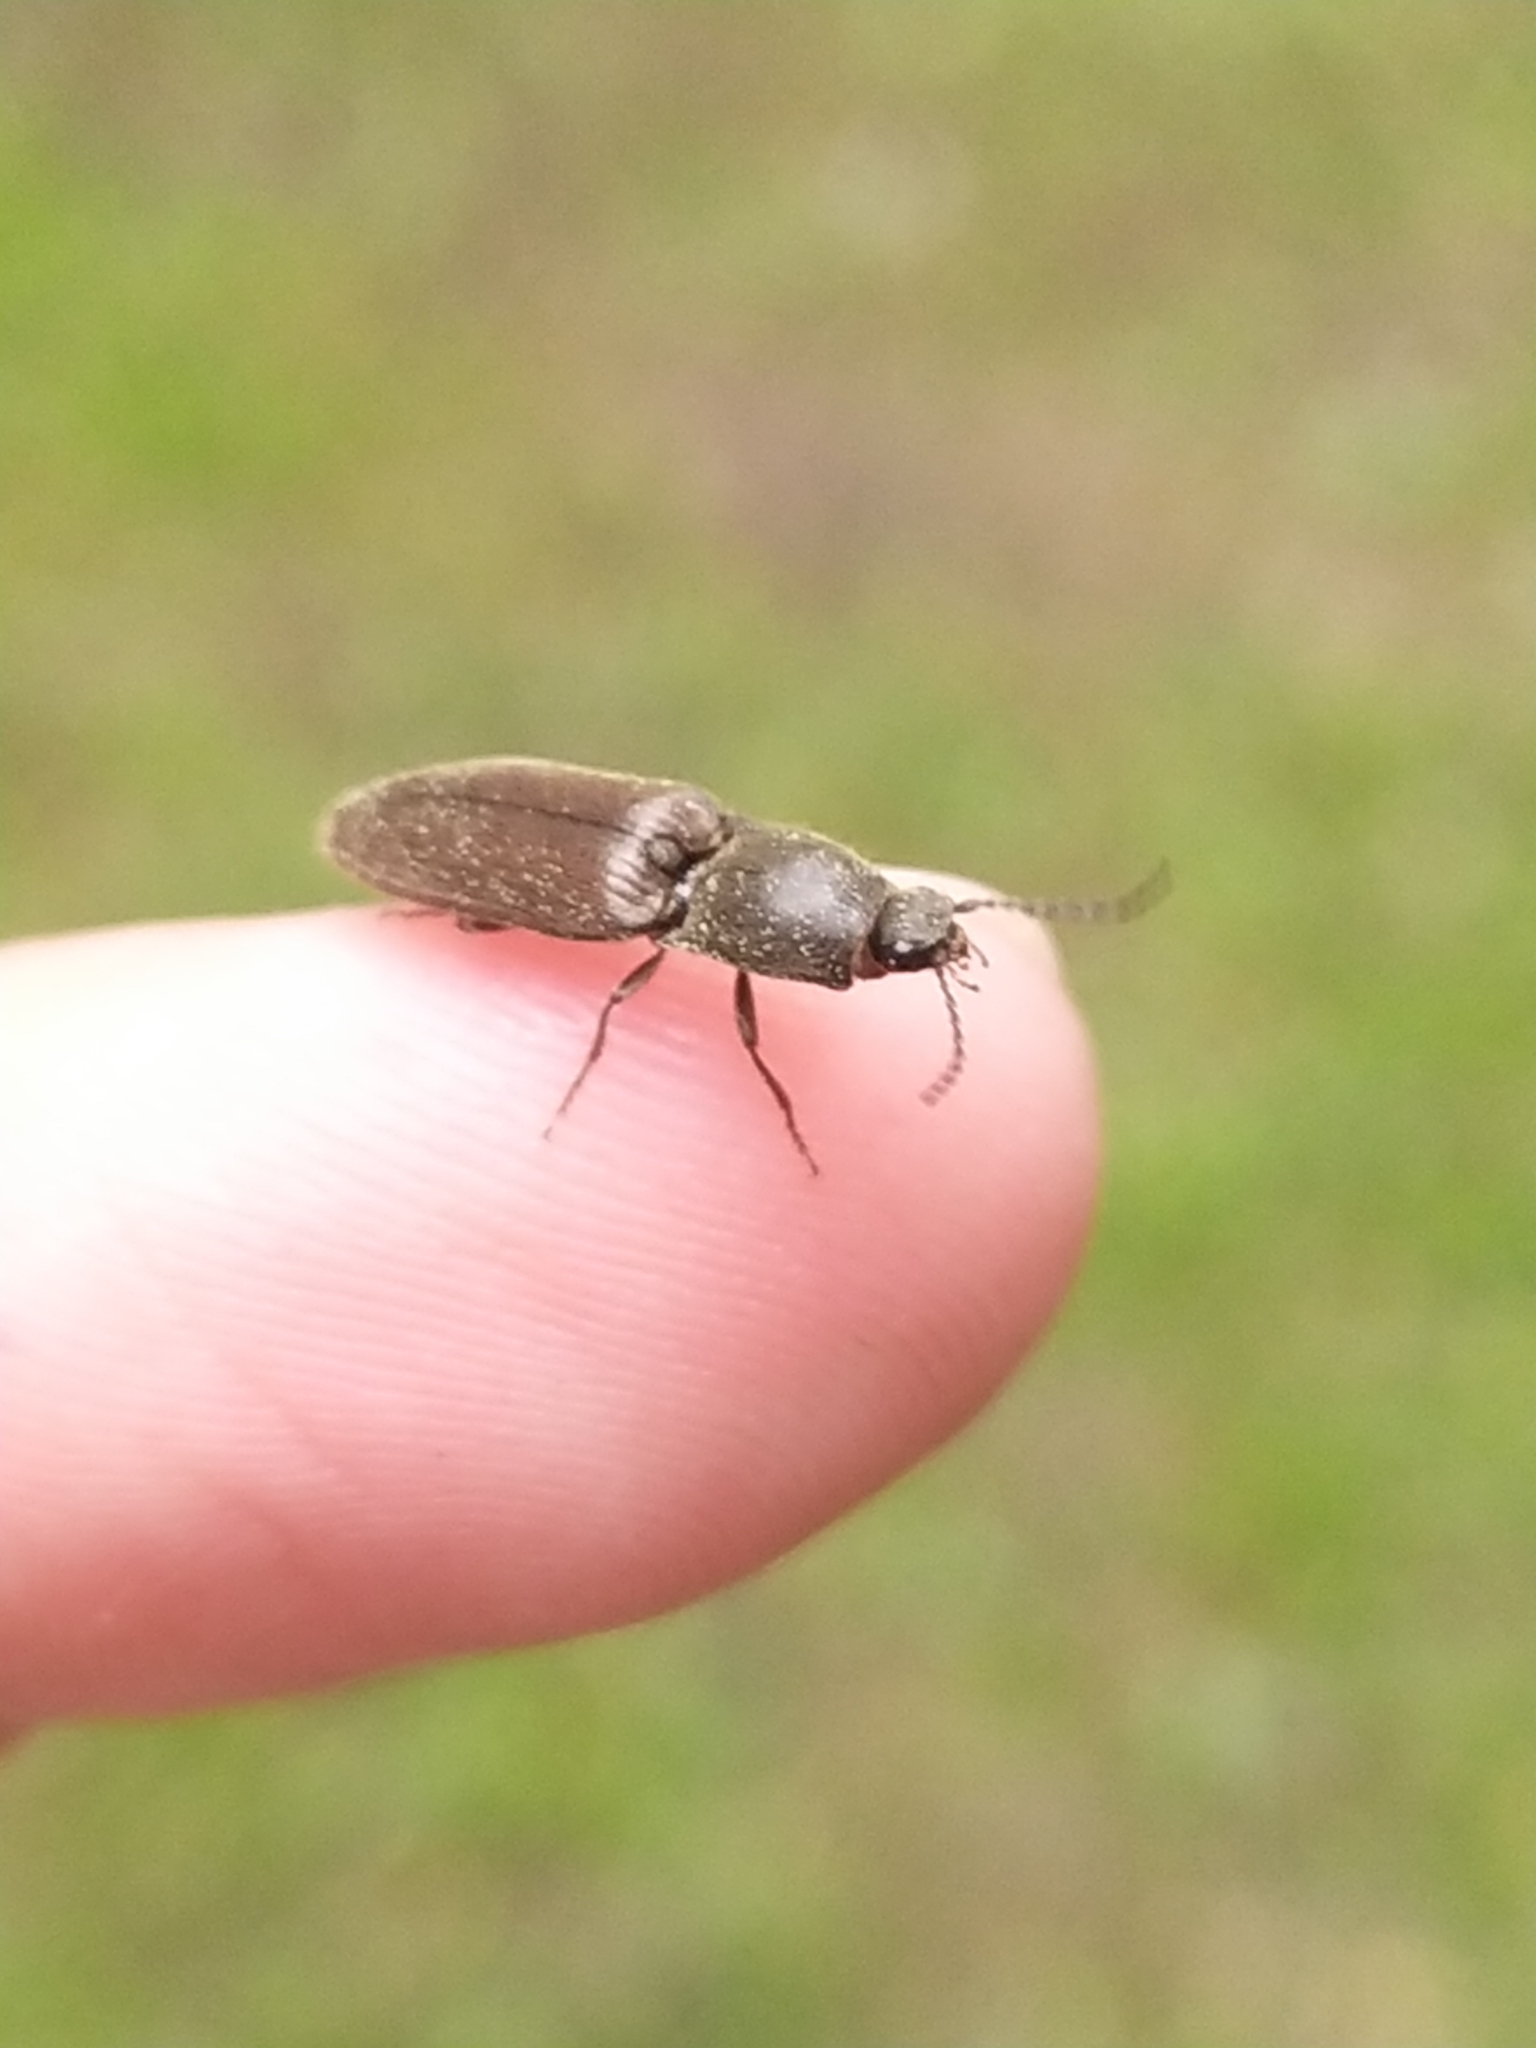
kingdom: Animalia
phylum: Arthropoda
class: Insecta
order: Coleoptera
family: Elateridae
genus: Athous
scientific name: Athous haemorrhoidalis
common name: Red-brown click beetle
